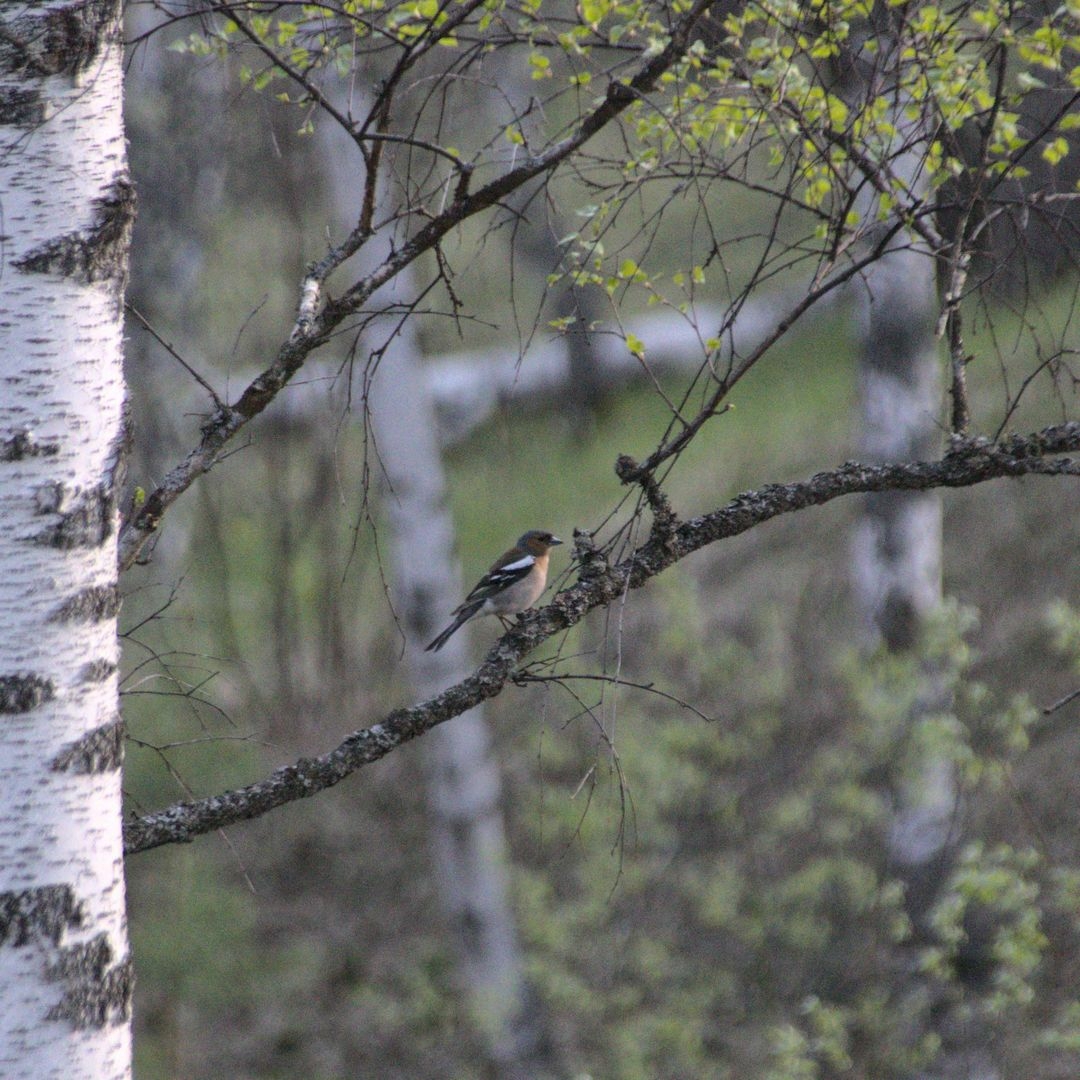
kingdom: Animalia
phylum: Chordata
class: Aves
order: Passeriformes
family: Fringillidae
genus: Fringilla
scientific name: Fringilla coelebs
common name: Common chaffinch
